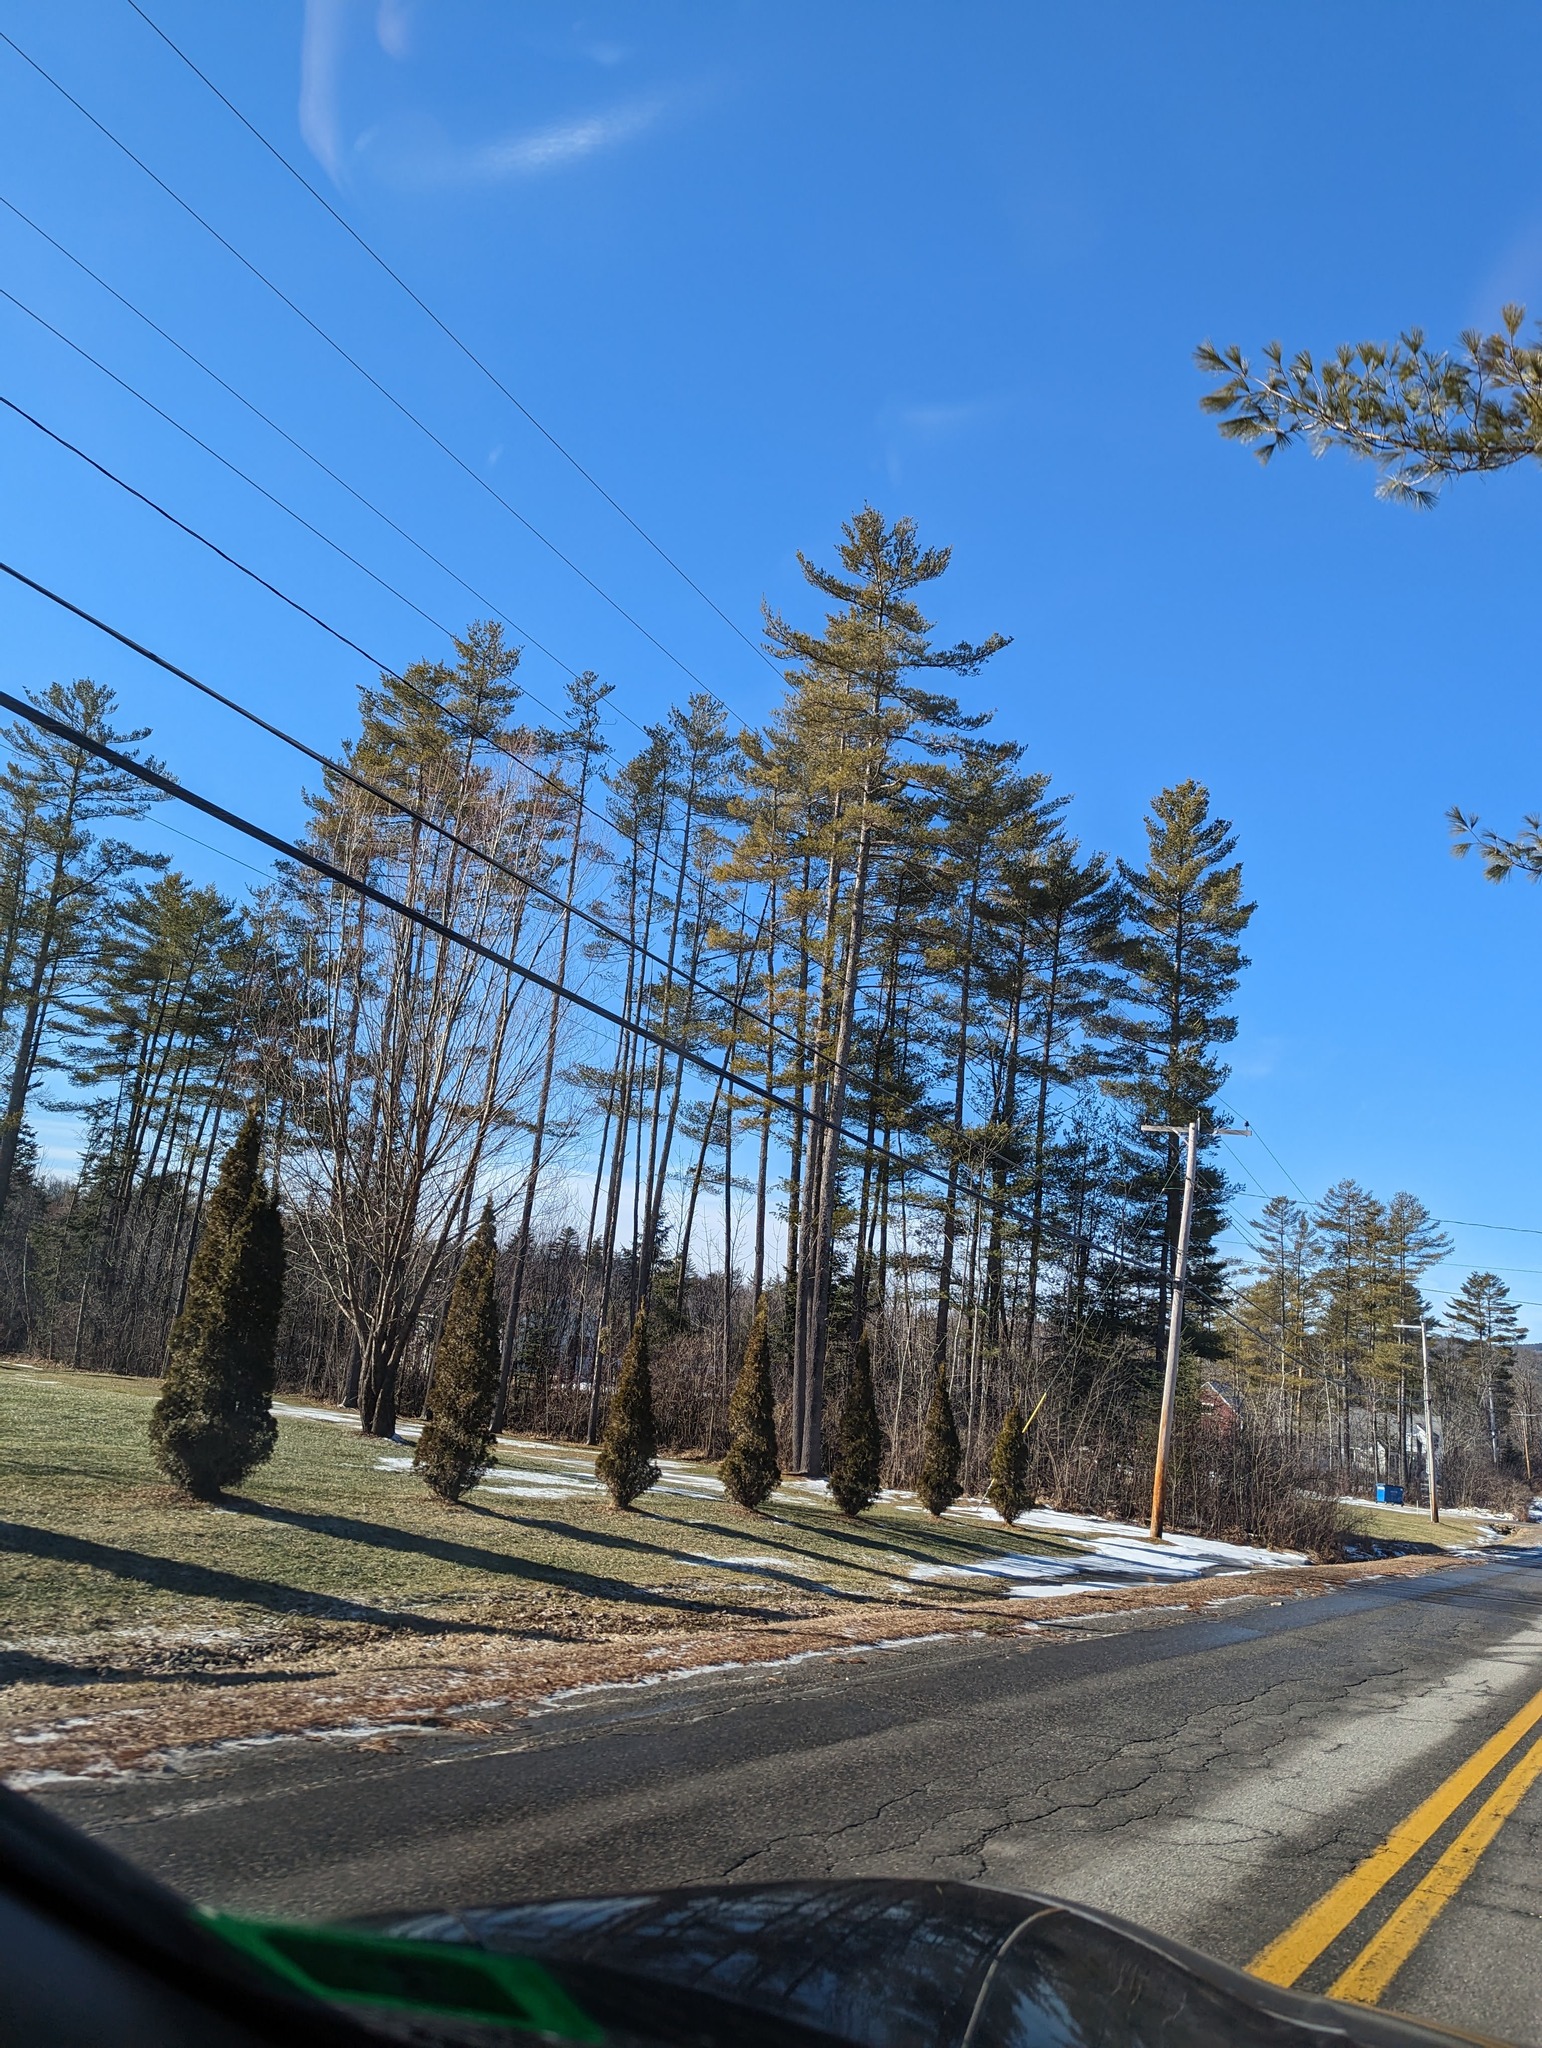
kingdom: Plantae
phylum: Tracheophyta
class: Pinopsida
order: Pinales
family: Pinaceae
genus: Pinus
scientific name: Pinus strobus
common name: Weymouth pine
